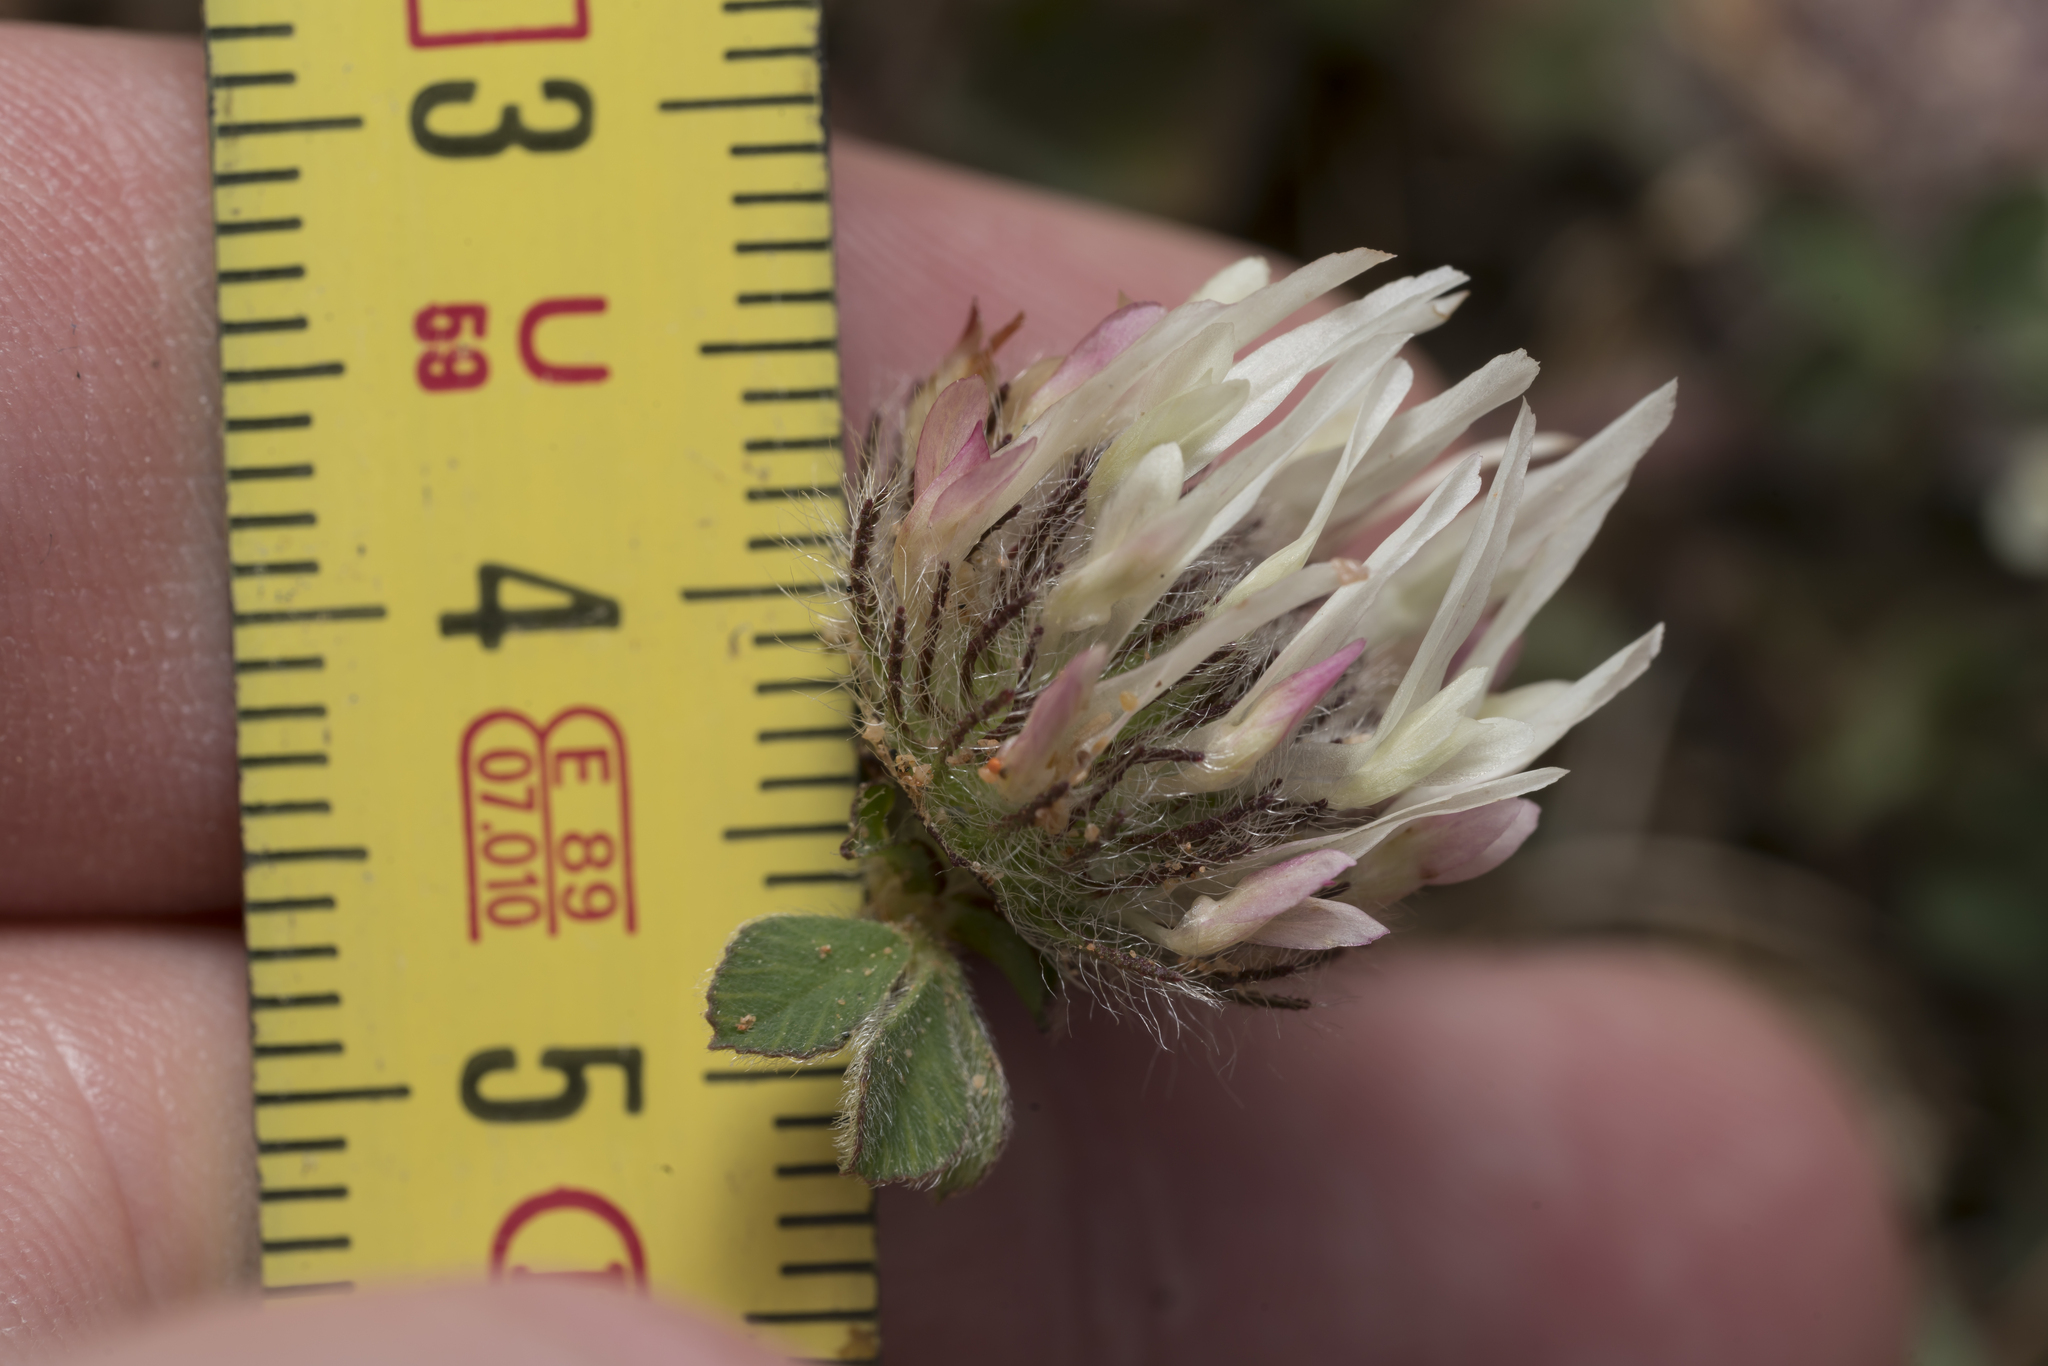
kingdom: Plantae
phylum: Tracheophyta
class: Magnoliopsida
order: Fabales
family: Fabaceae
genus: Trifolium
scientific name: Trifolium cherleri
